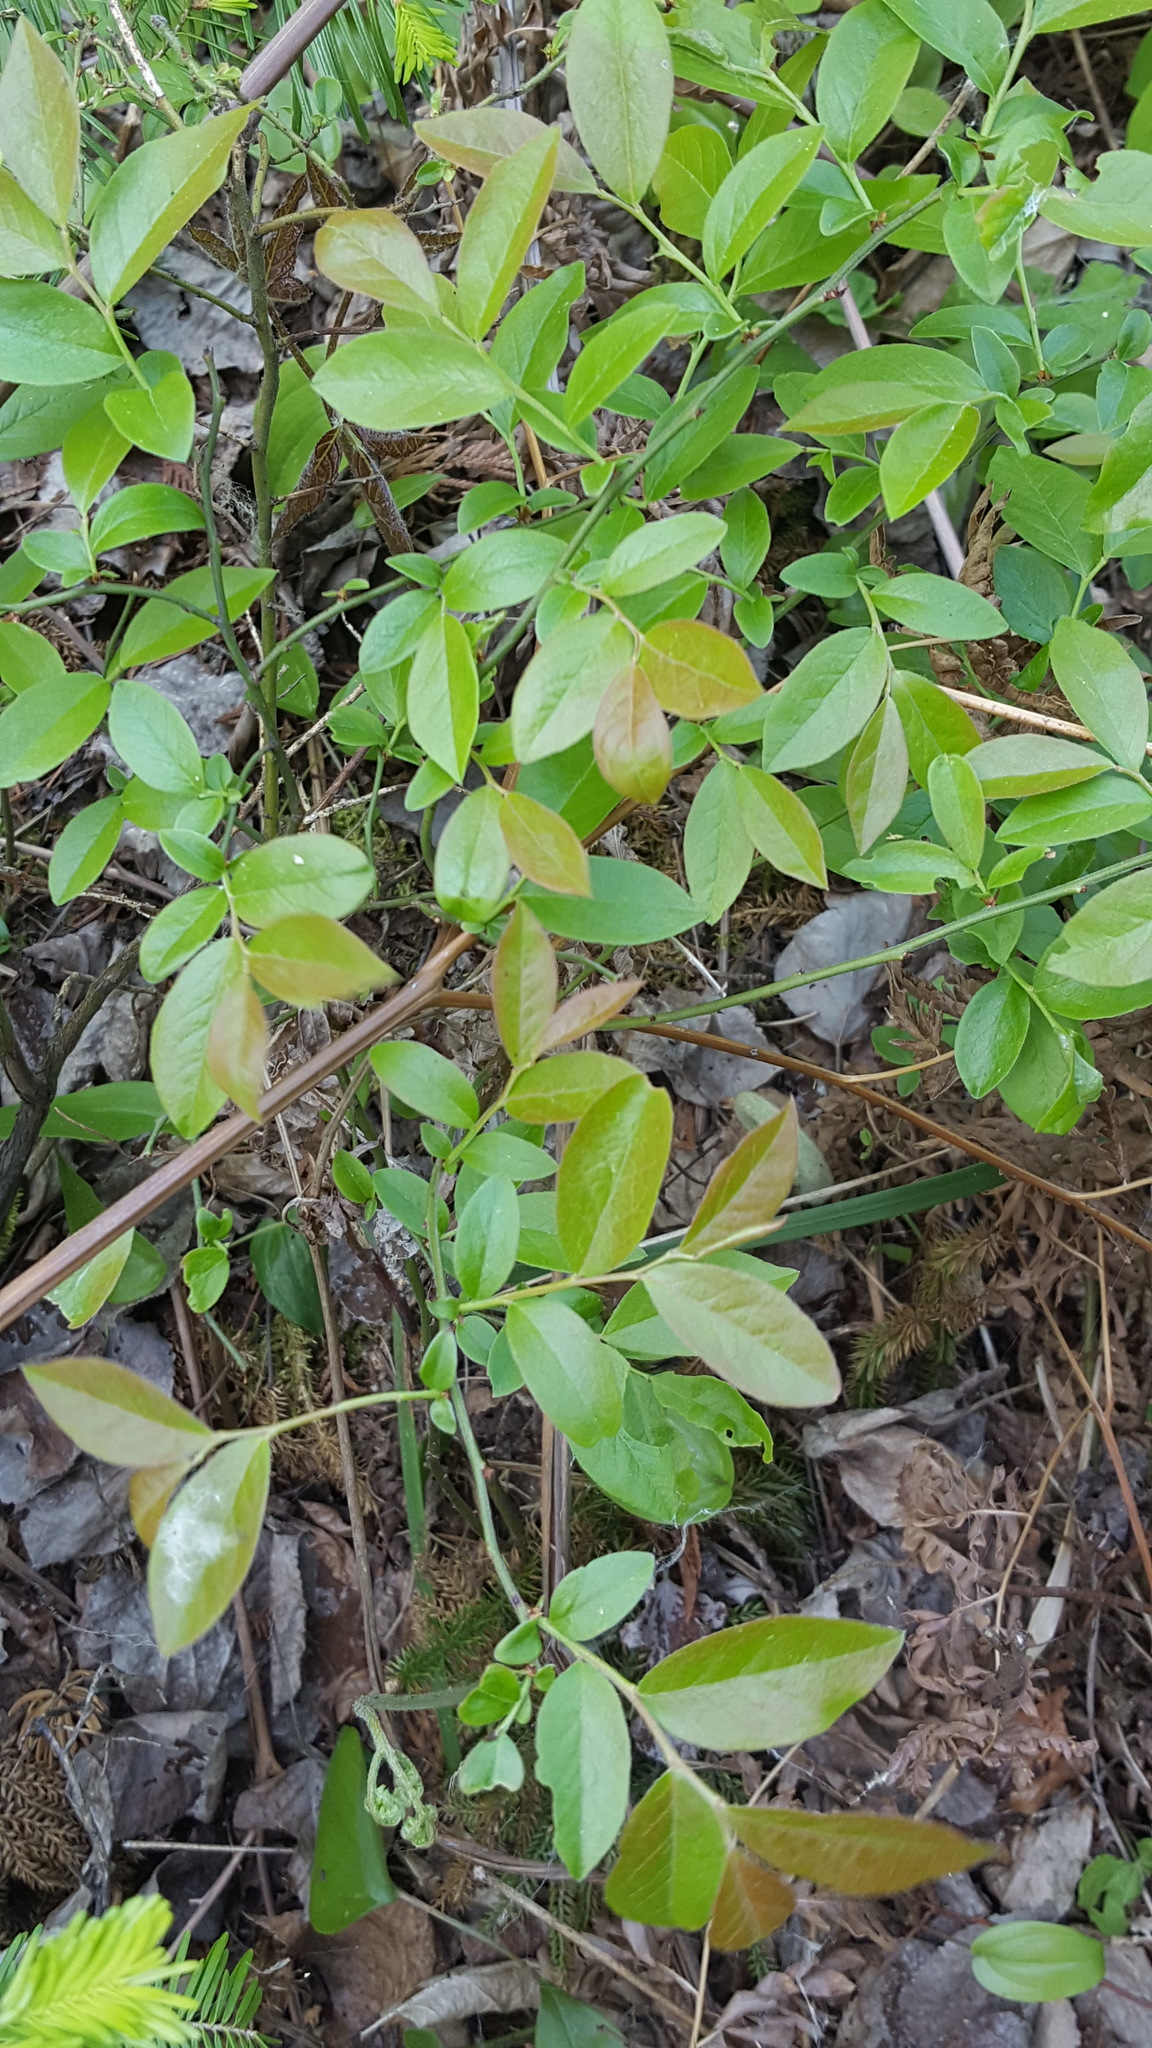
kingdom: Plantae
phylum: Tracheophyta
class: Magnoliopsida
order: Ericales
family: Ericaceae
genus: Vaccinium
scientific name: Vaccinium angustifolium
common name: Early lowbush blueberry
